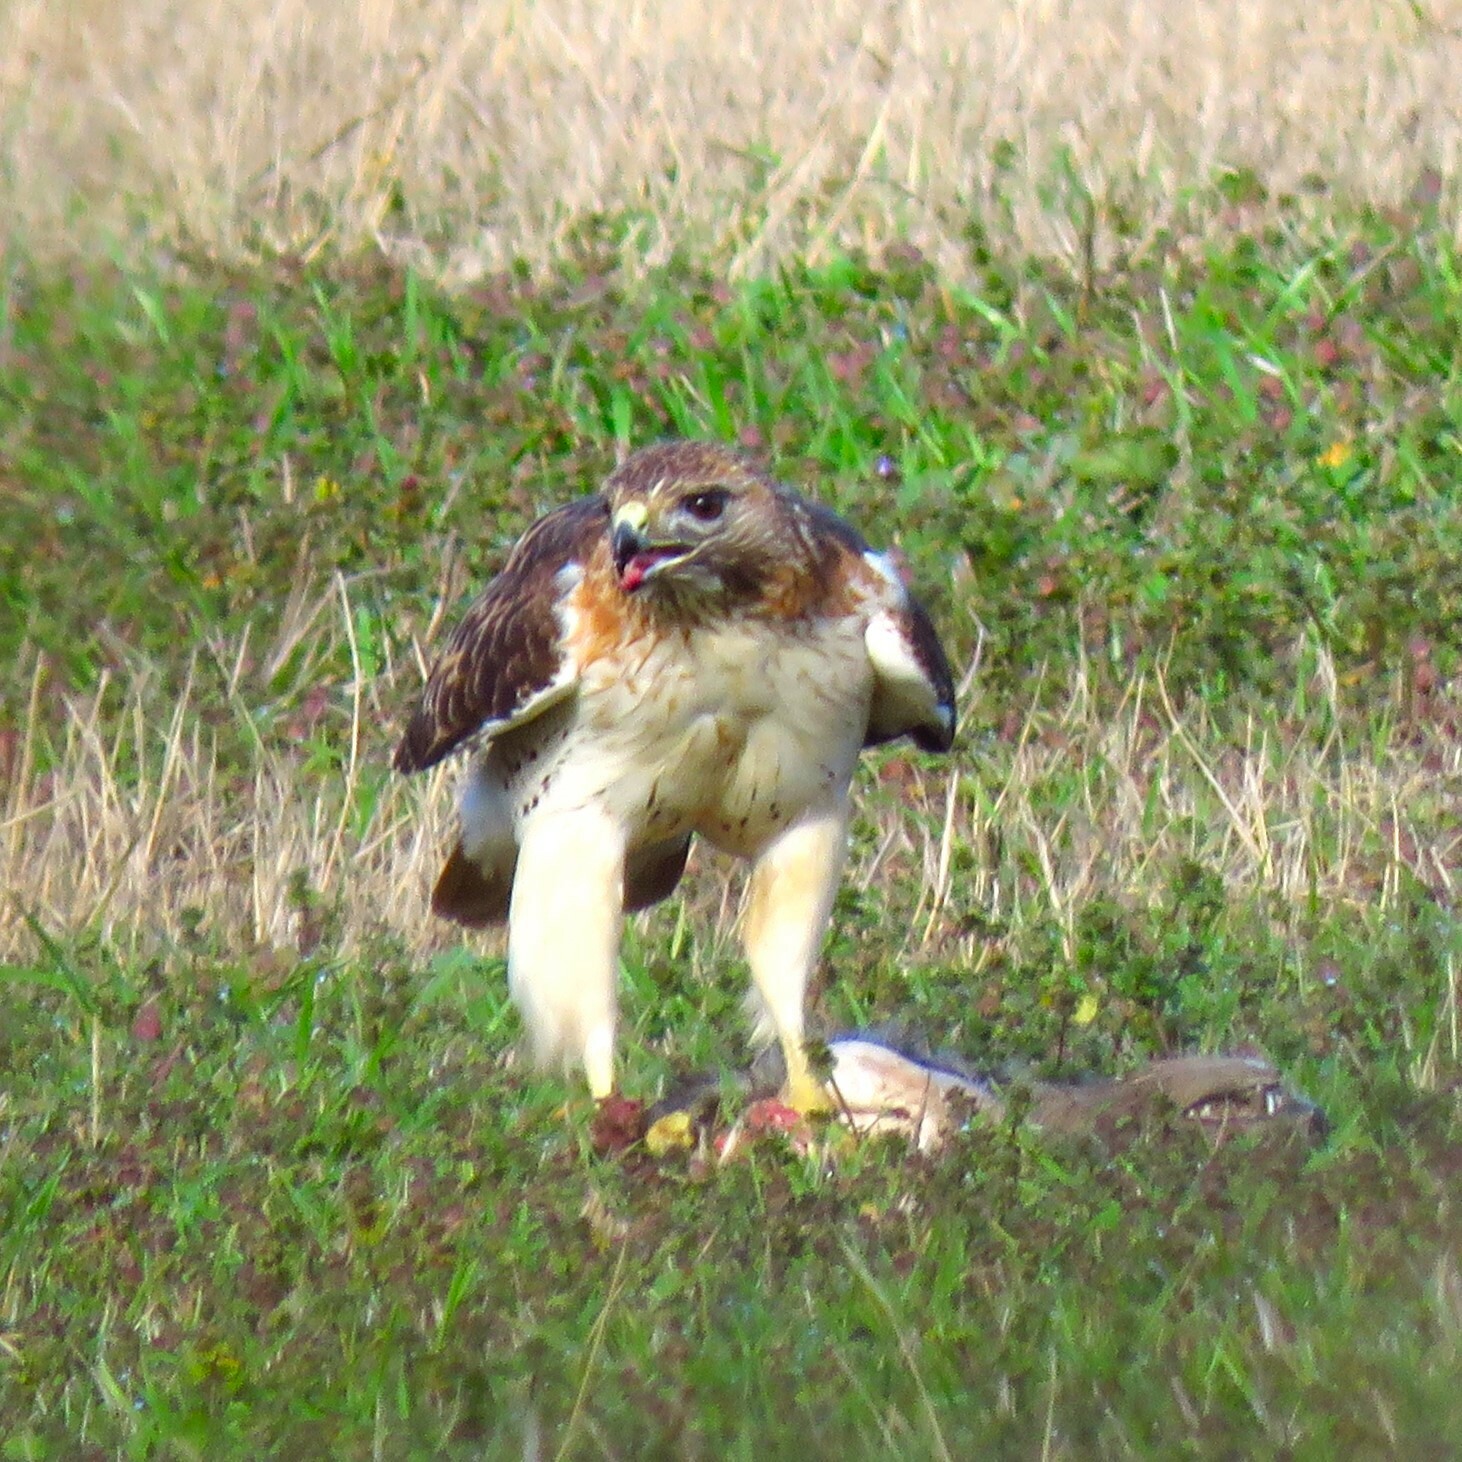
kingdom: Animalia
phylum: Chordata
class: Aves
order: Accipitriformes
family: Accipitridae
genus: Buteo
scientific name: Buteo jamaicensis
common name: Red-tailed hawk
